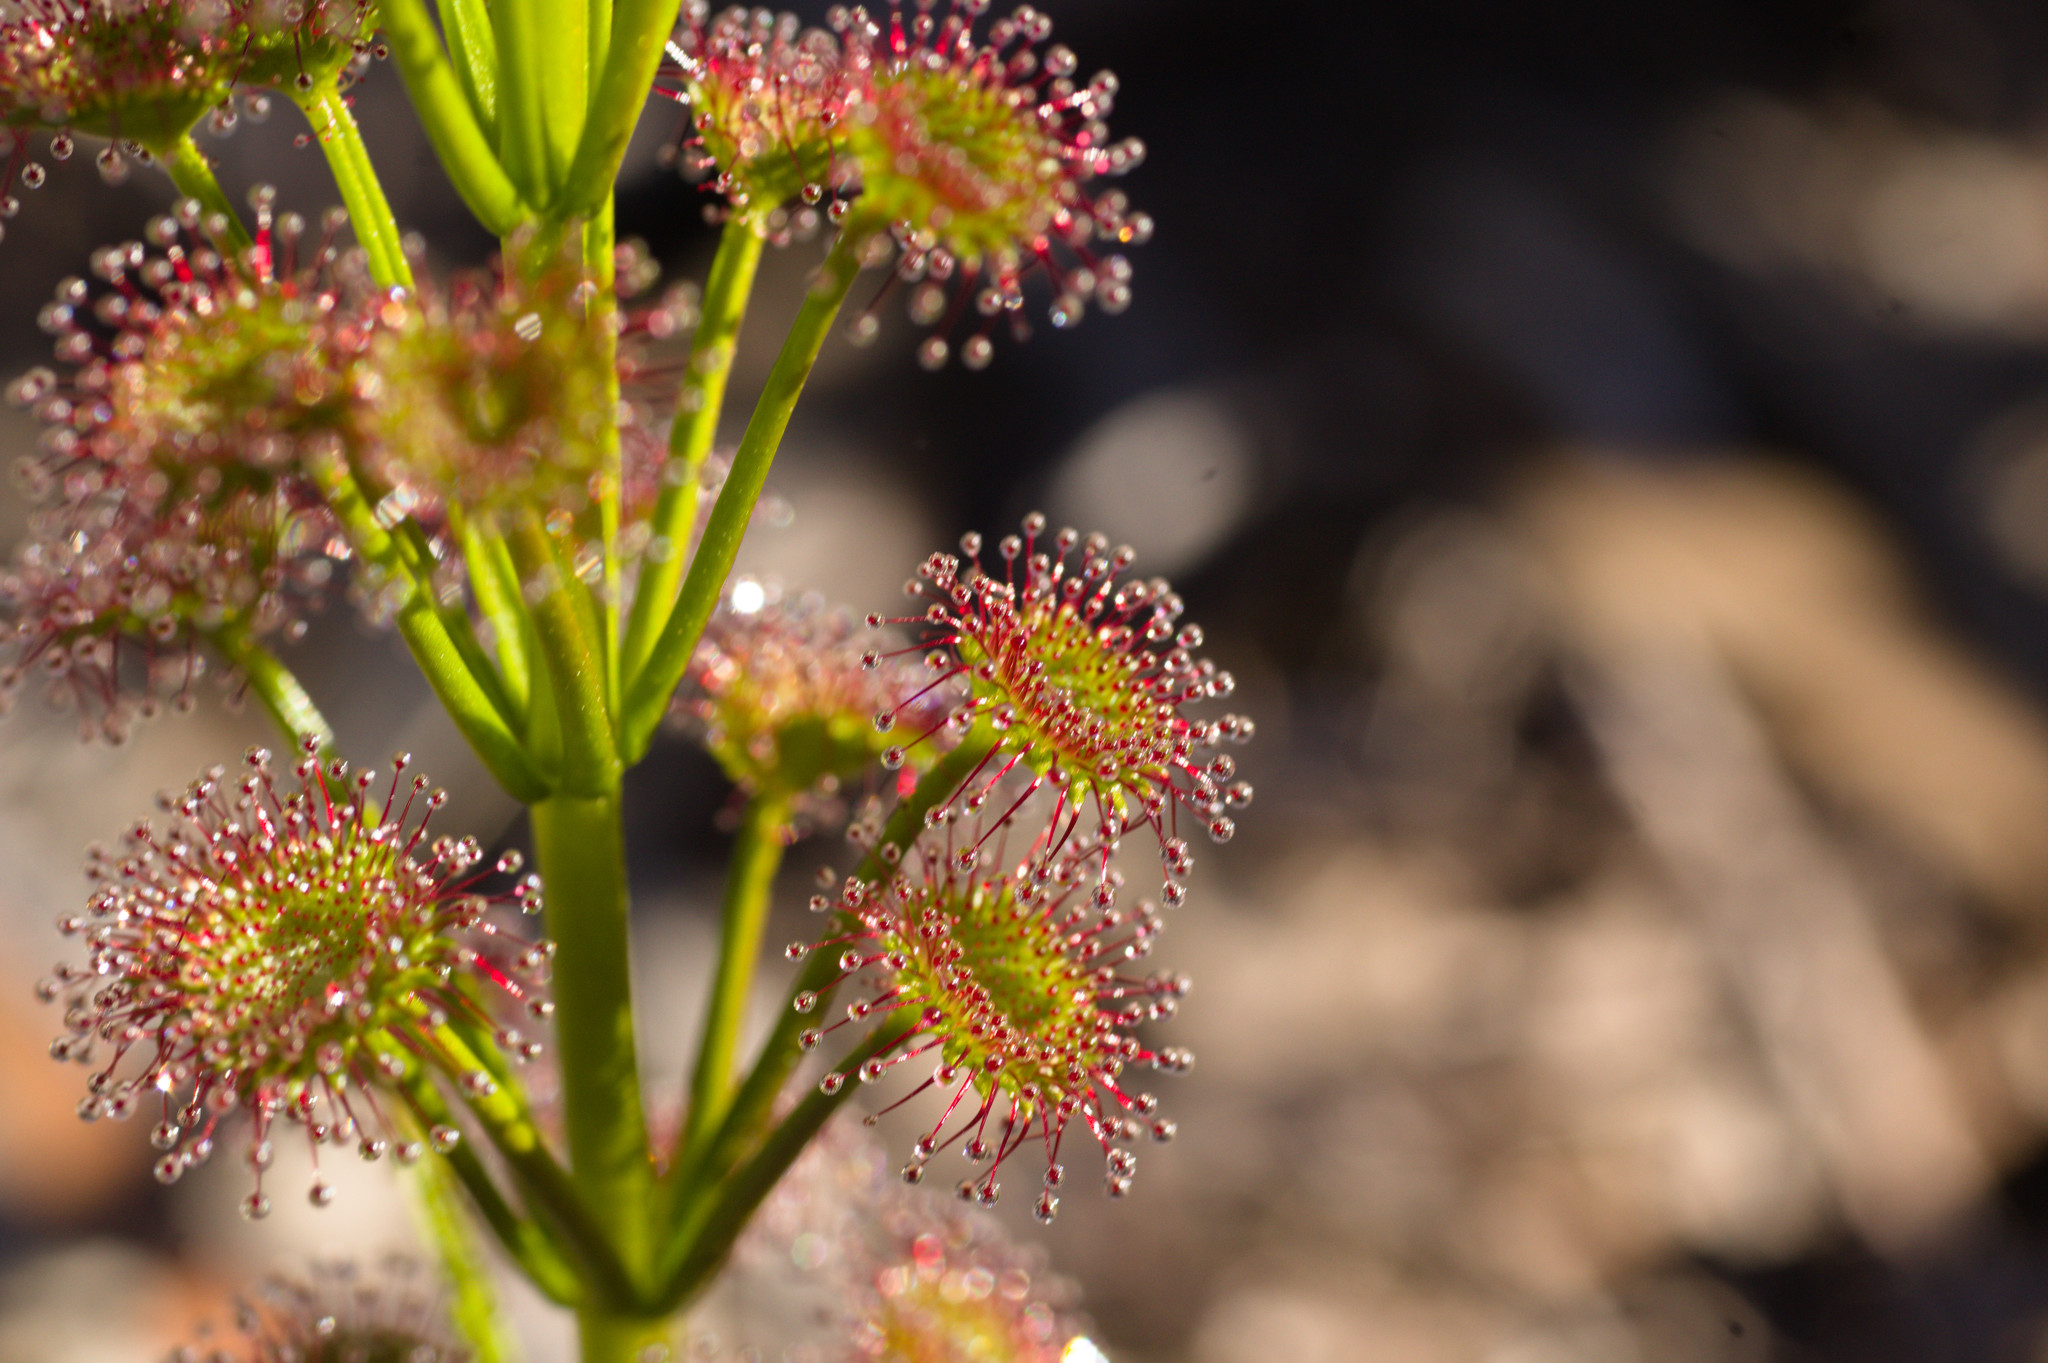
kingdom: Plantae
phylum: Tracheophyta
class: Magnoliopsida
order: Caryophyllales
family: Droseraceae
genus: Drosera
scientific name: Drosera stolonifera
